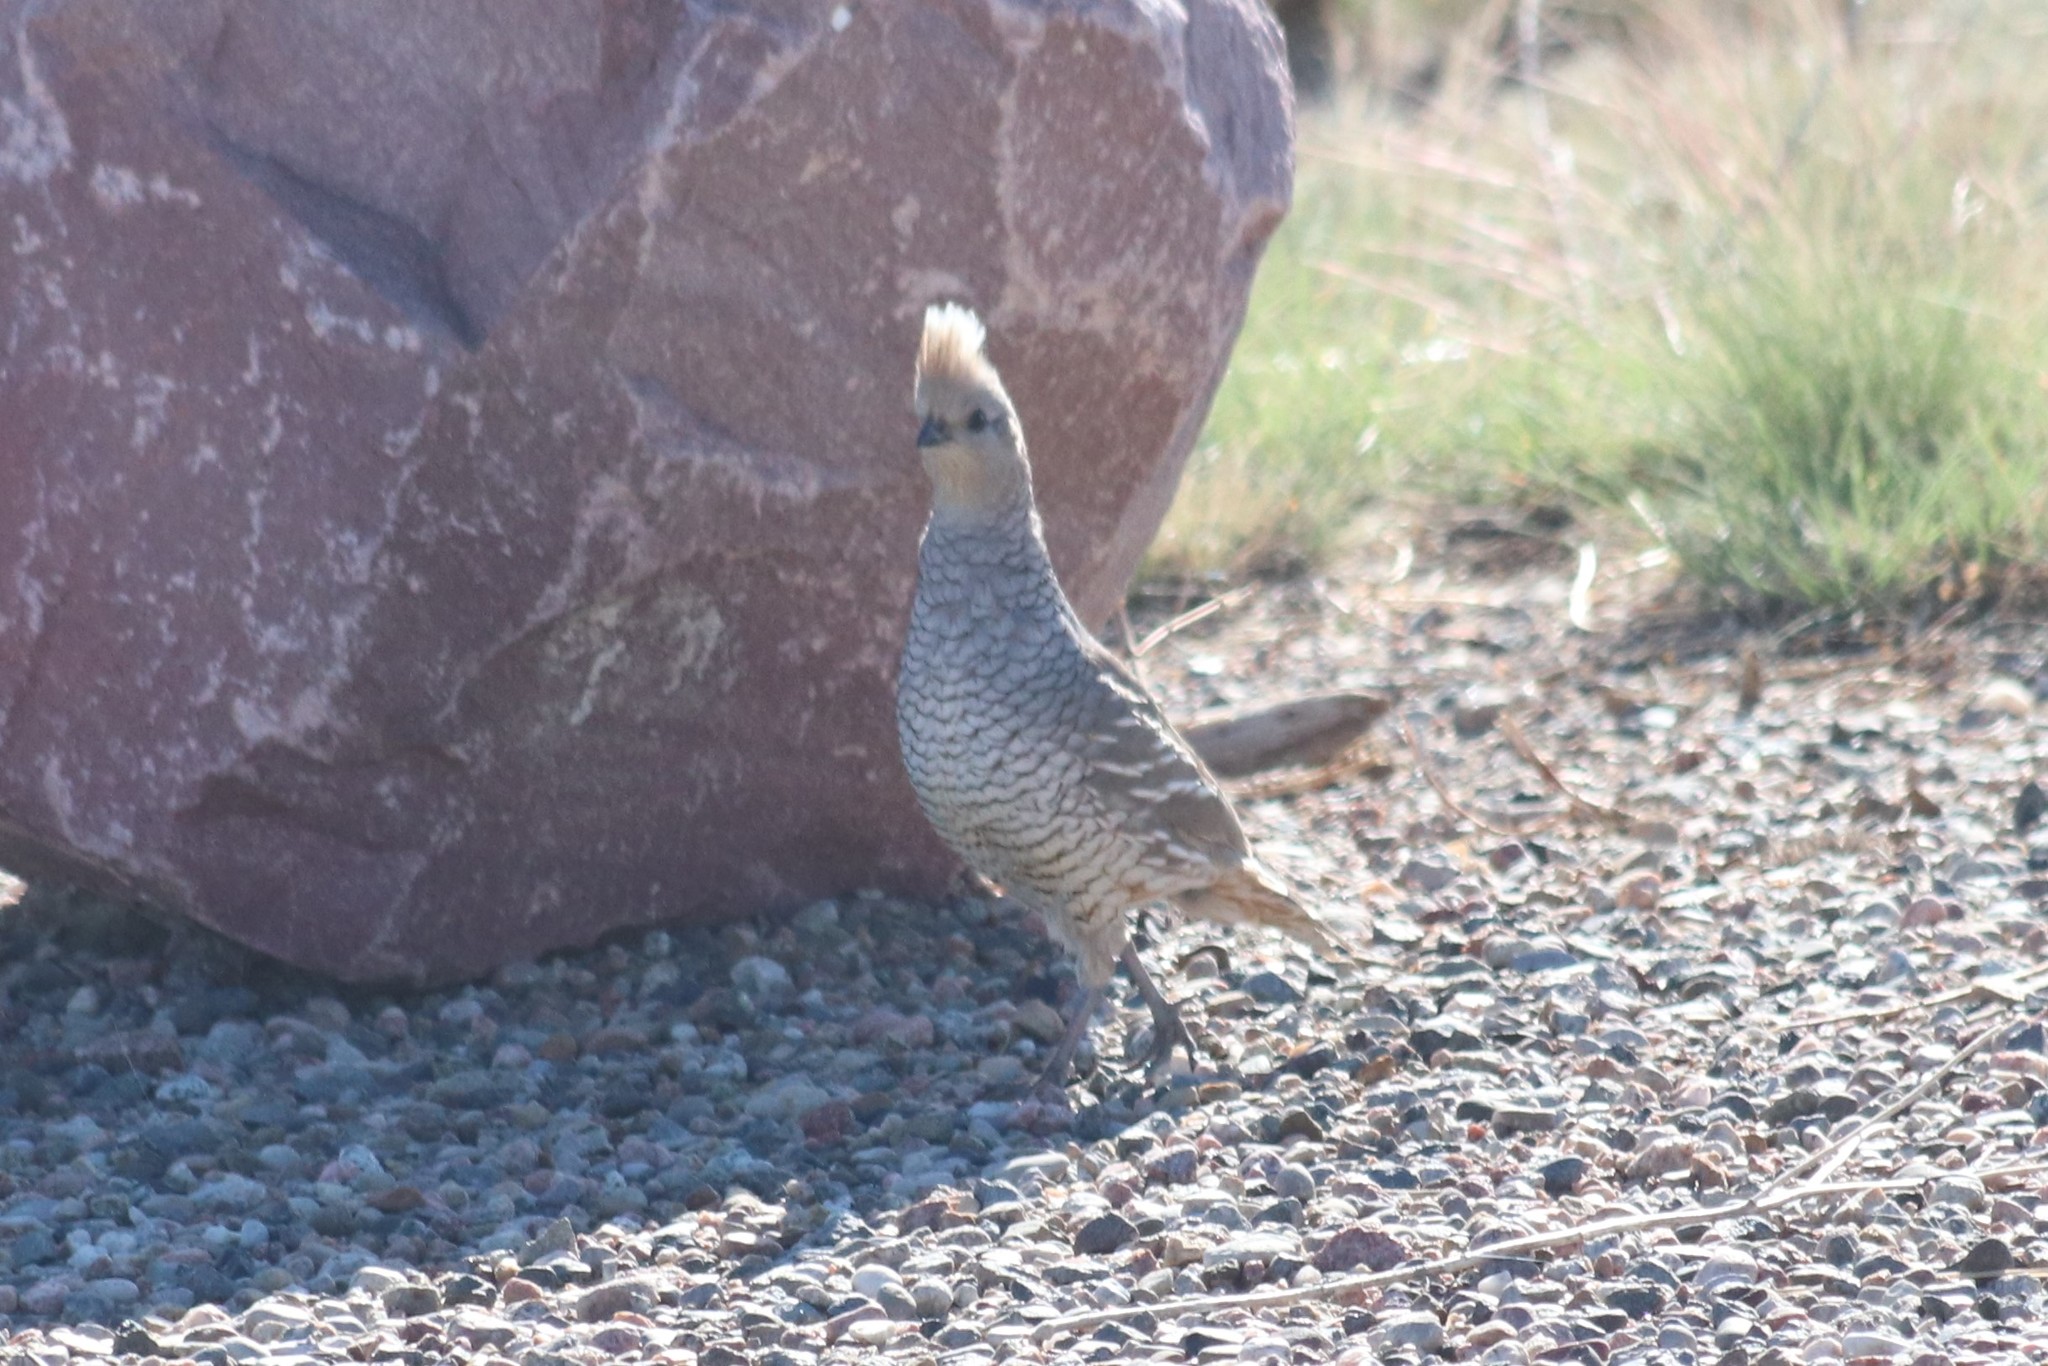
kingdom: Animalia
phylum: Chordata
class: Aves
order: Galliformes
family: Odontophoridae
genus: Callipepla
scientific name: Callipepla squamata
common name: Scaled quail
